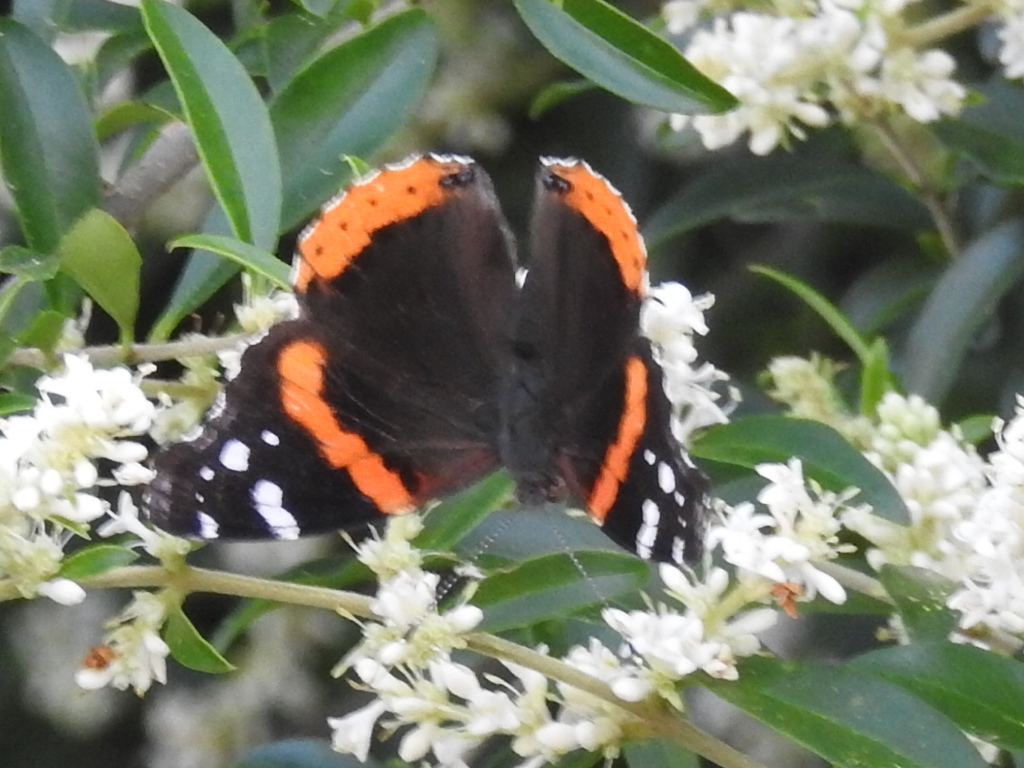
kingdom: Animalia
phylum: Arthropoda
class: Insecta
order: Lepidoptera
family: Nymphalidae
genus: Vanessa
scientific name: Vanessa atalanta
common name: Red admiral
